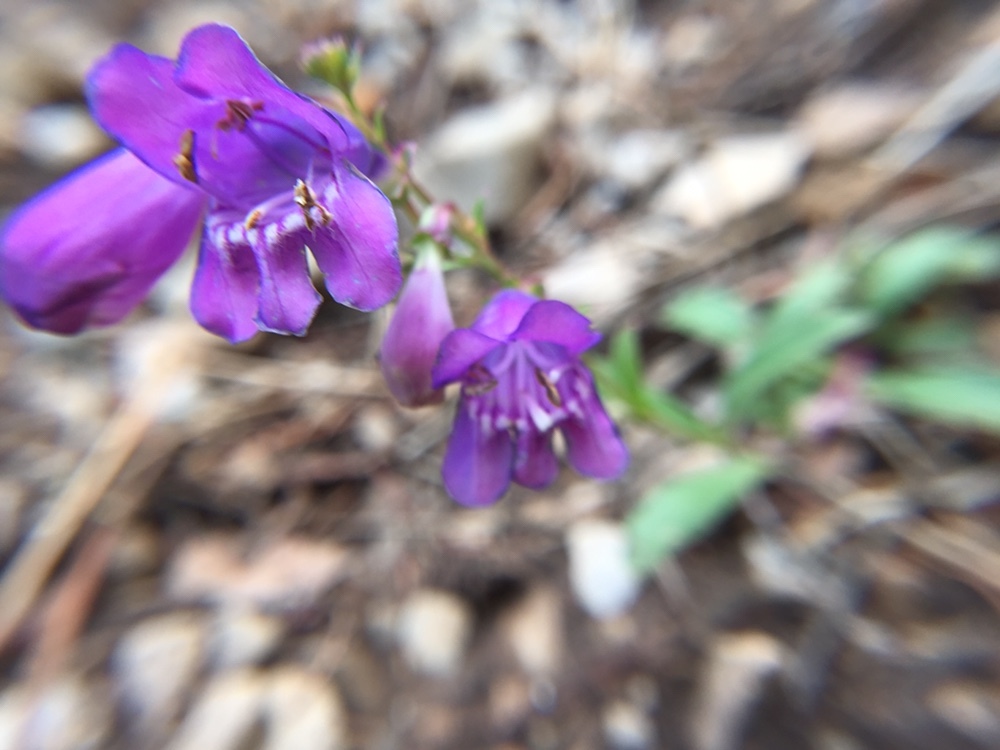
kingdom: Plantae
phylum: Tracheophyta
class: Magnoliopsida
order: Lamiales
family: Plantaginaceae
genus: Penstemon
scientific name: Penstemon neomexicanus
